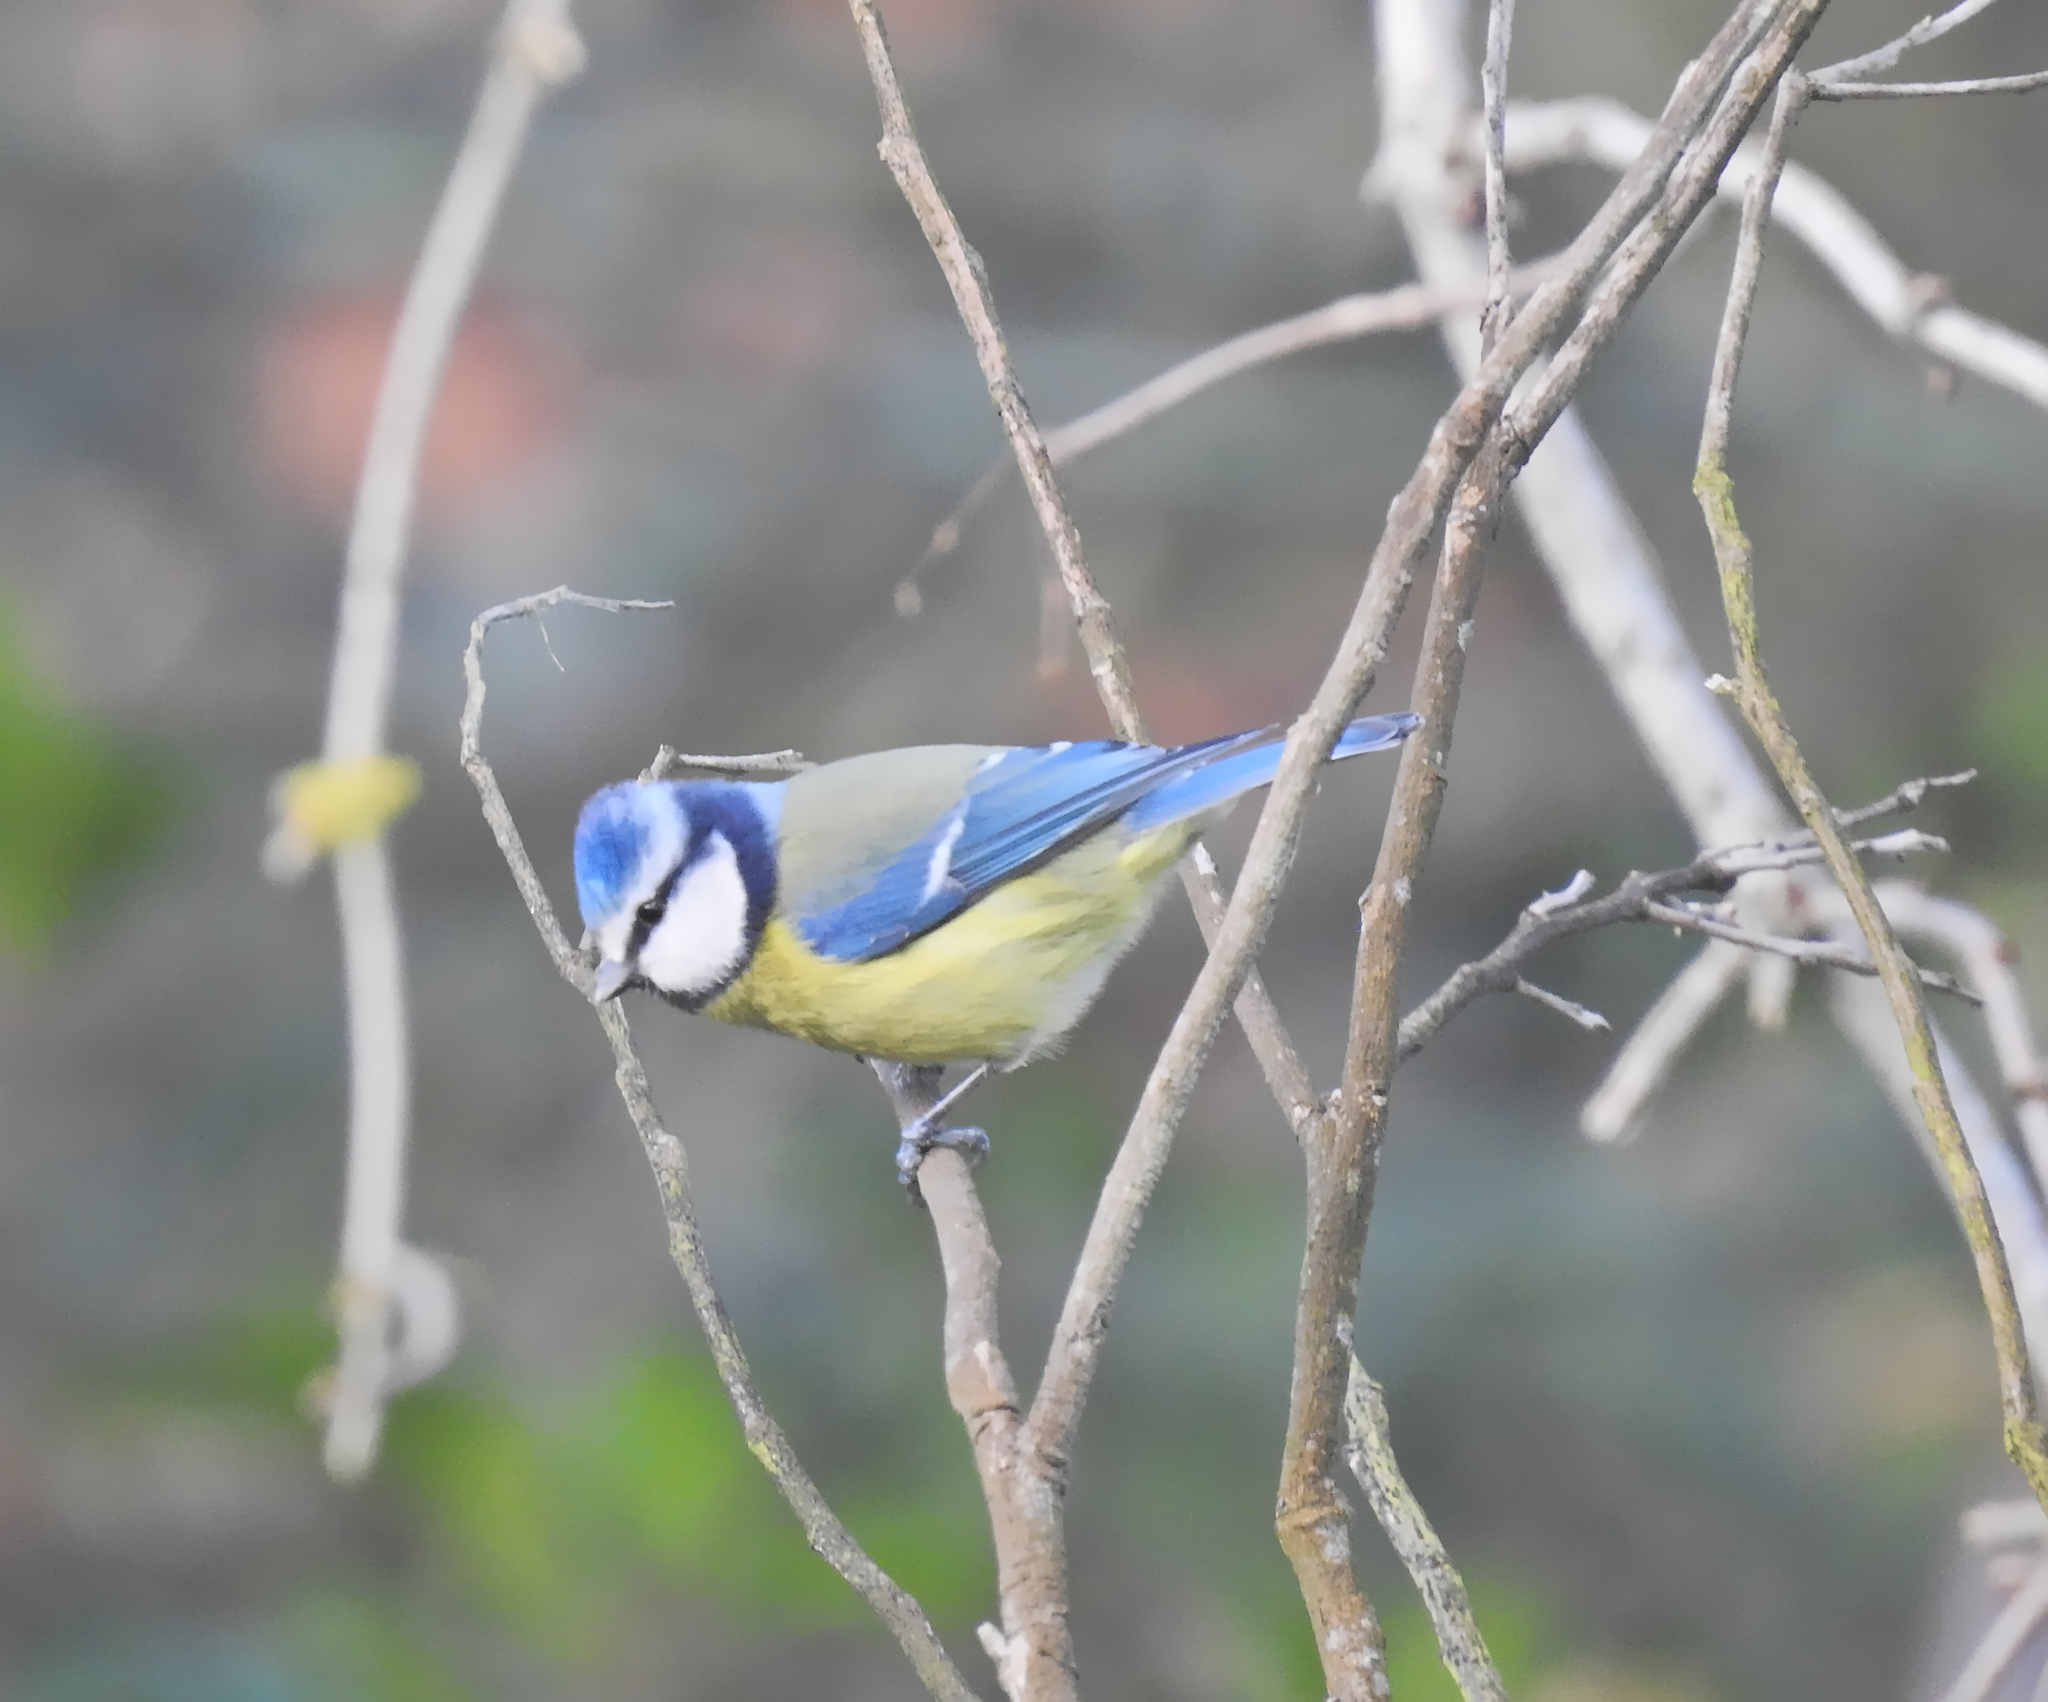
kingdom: Animalia
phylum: Chordata
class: Aves
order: Passeriformes
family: Paridae
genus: Cyanistes
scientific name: Cyanistes caeruleus
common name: Eurasian blue tit
